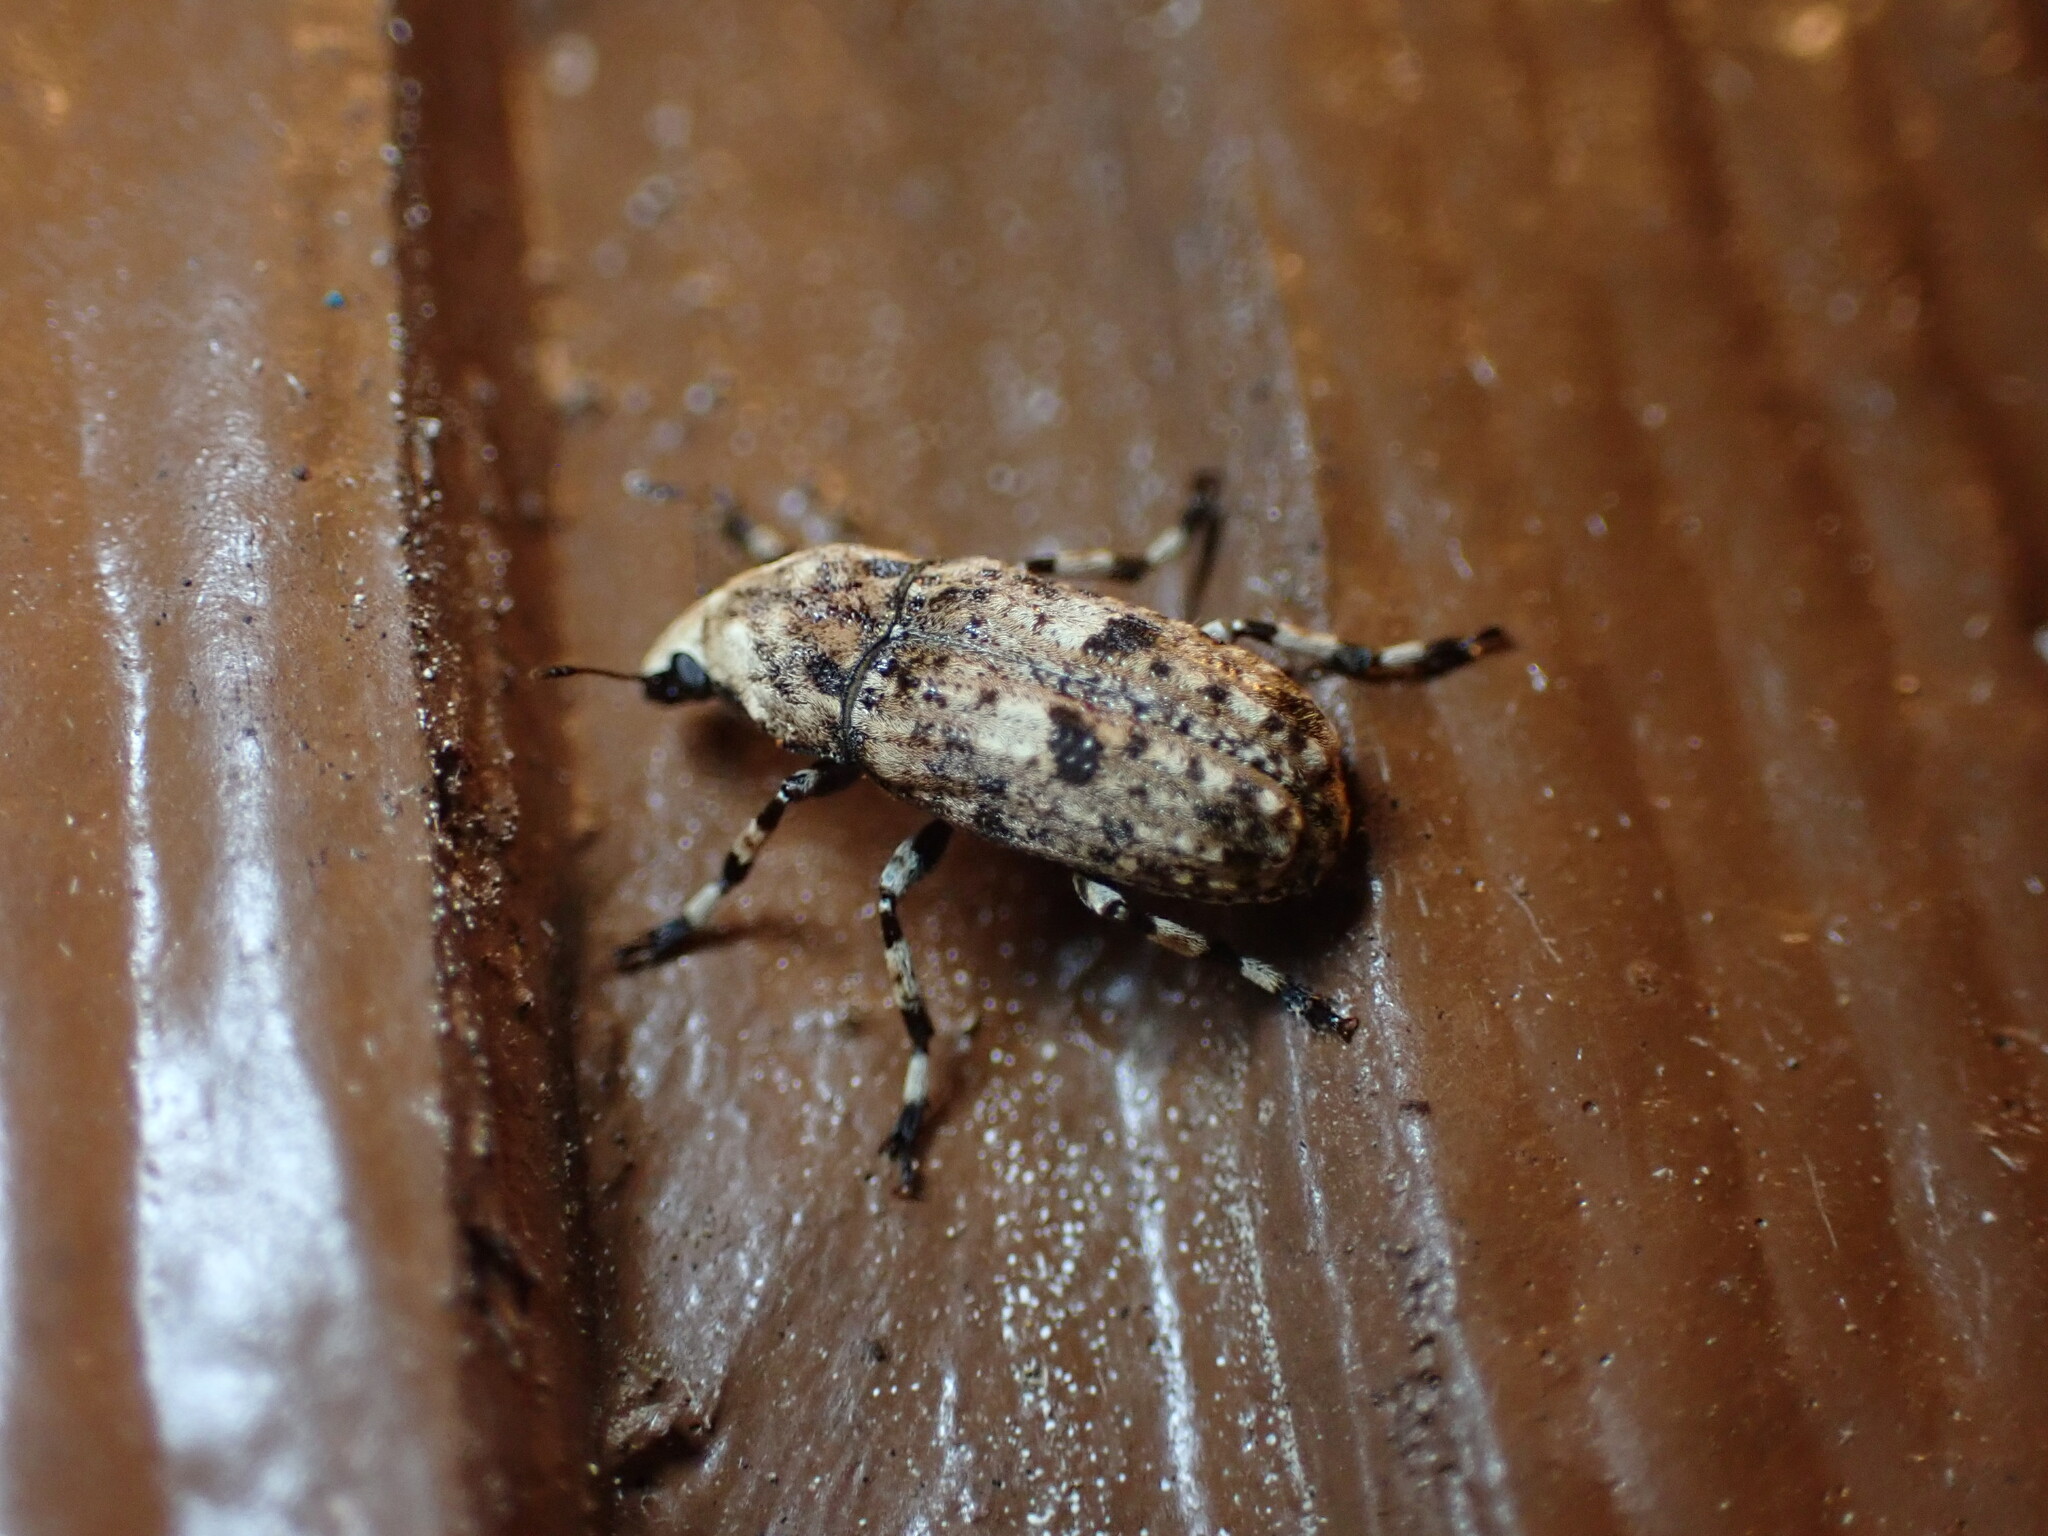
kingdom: Animalia
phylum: Arthropoda
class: Insecta
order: Coleoptera
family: Anthribidae
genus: Euparius
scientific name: Euparius marmoreus
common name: Marbled fungus weevil
